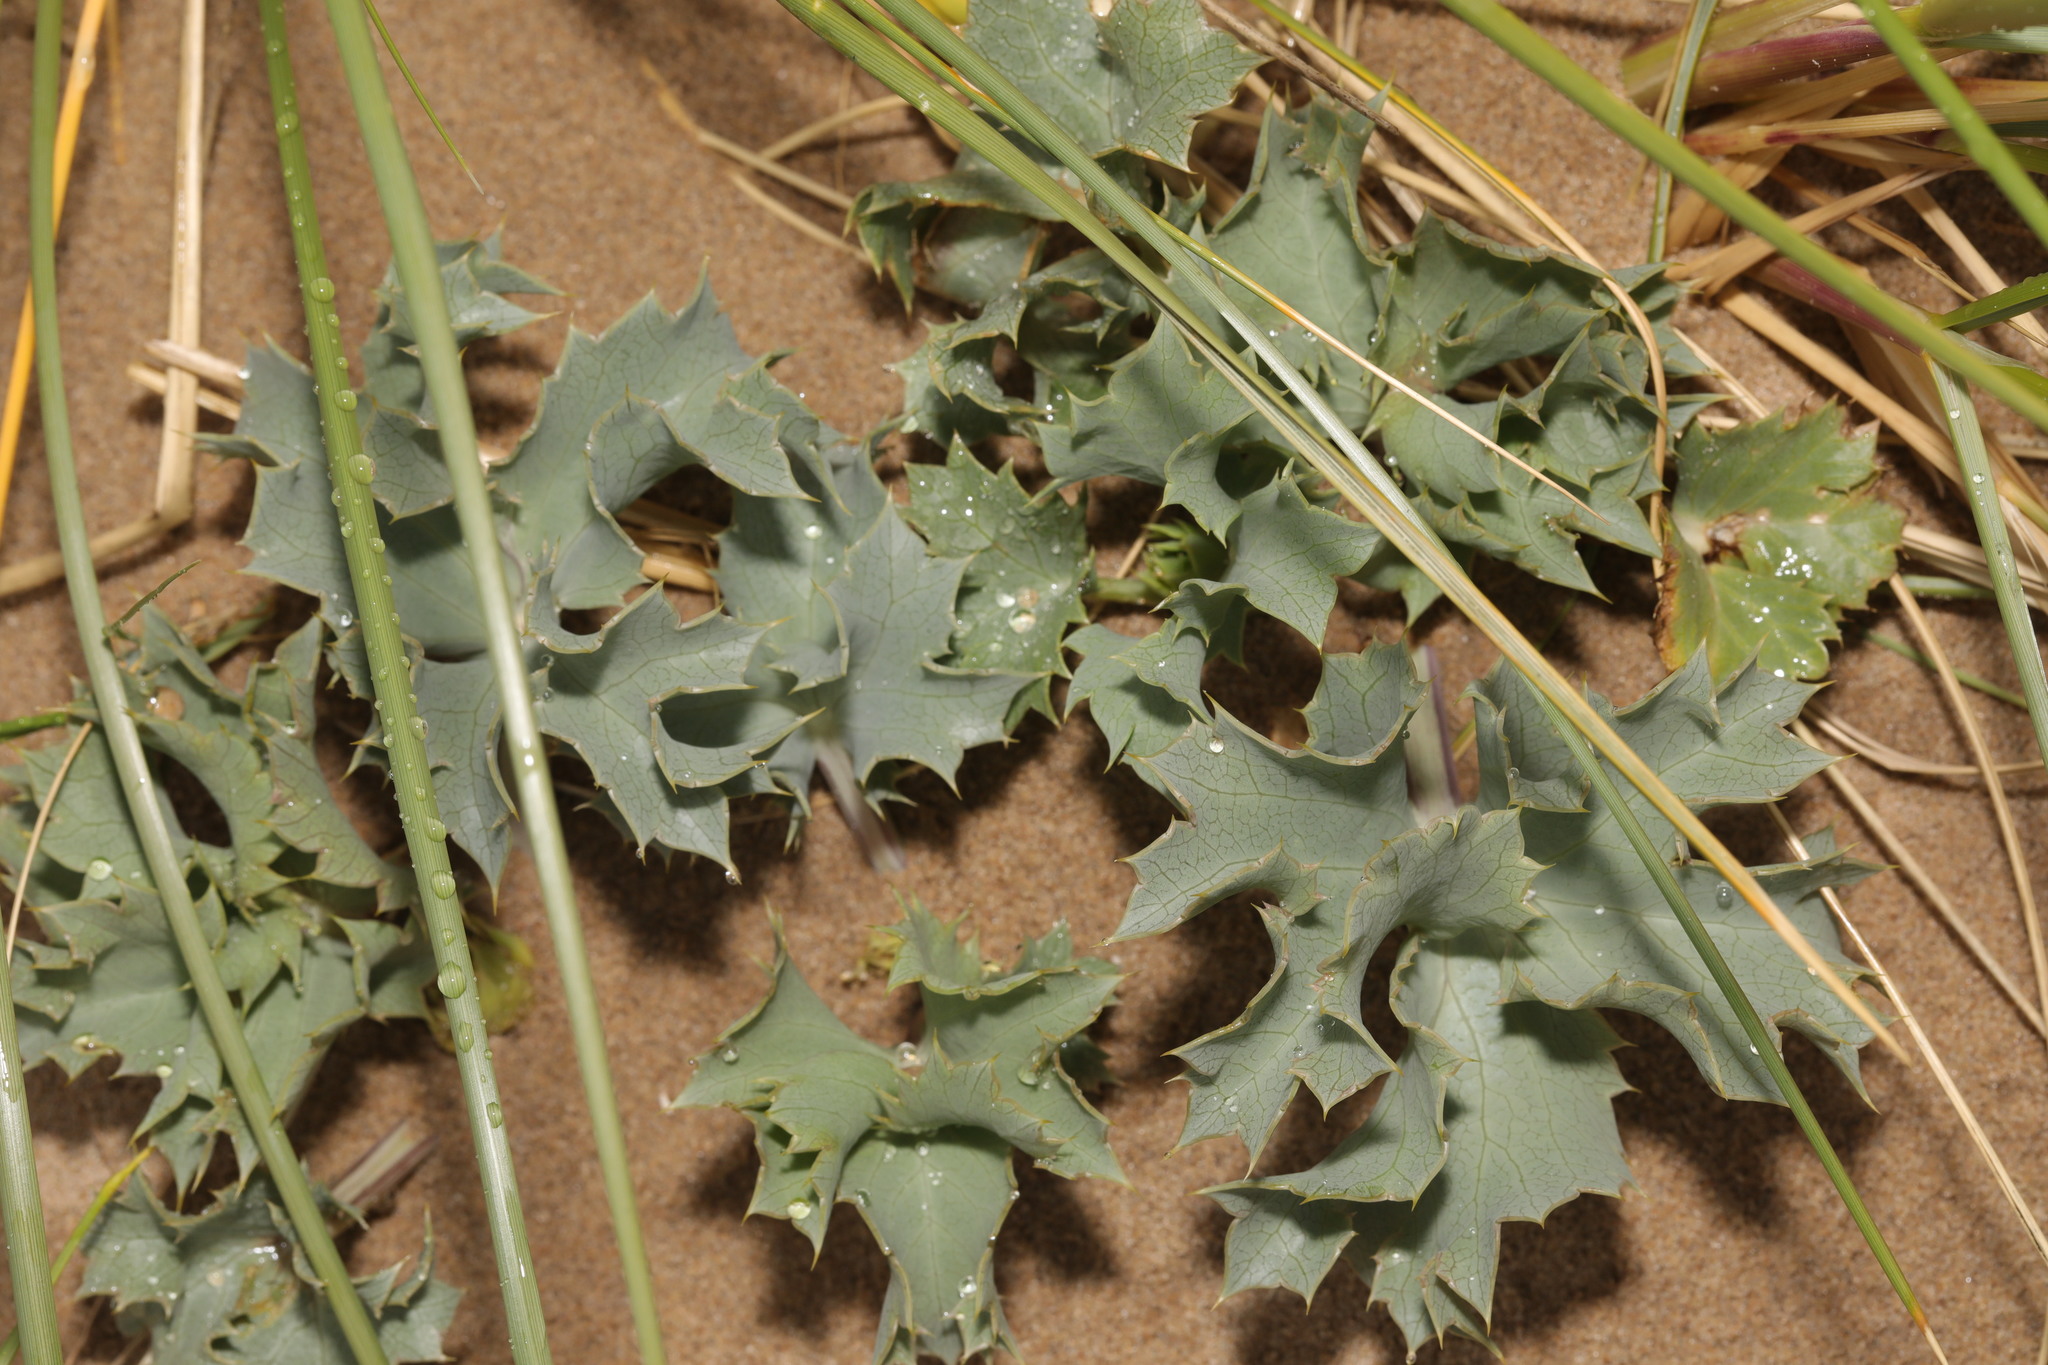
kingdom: Plantae
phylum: Tracheophyta
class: Magnoliopsida
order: Apiales
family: Apiaceae
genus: Eryngium
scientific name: Eryngium maritimum
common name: Sea-holly
